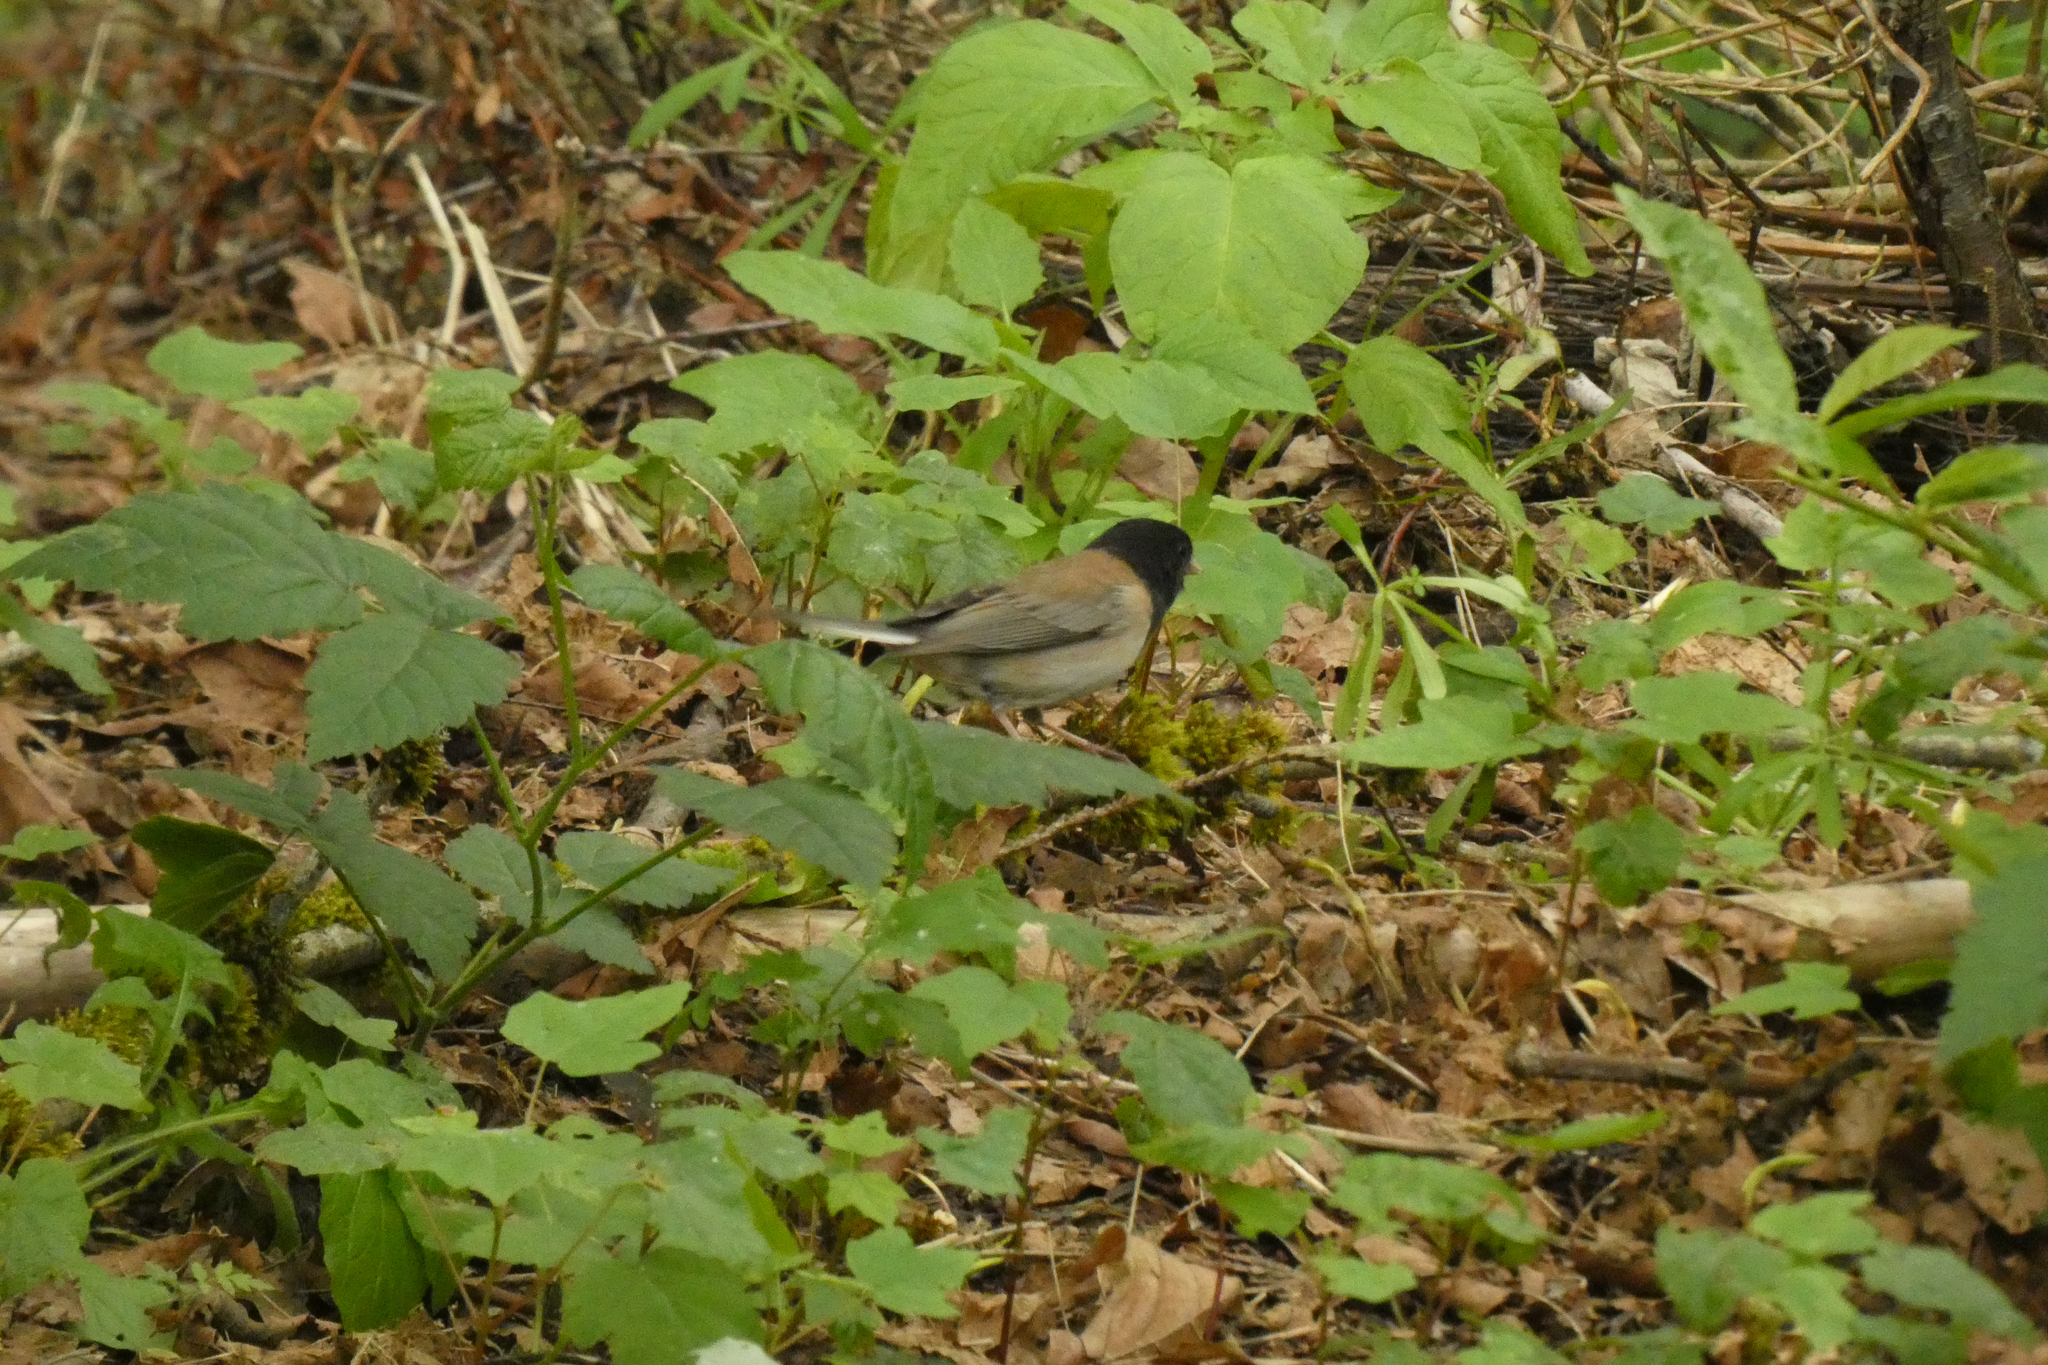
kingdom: Animalia
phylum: Chordata
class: Aves
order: Passeriformes
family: Passerellidae
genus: Junco
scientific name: Junco hyemalis
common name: Dark-eyed junco
